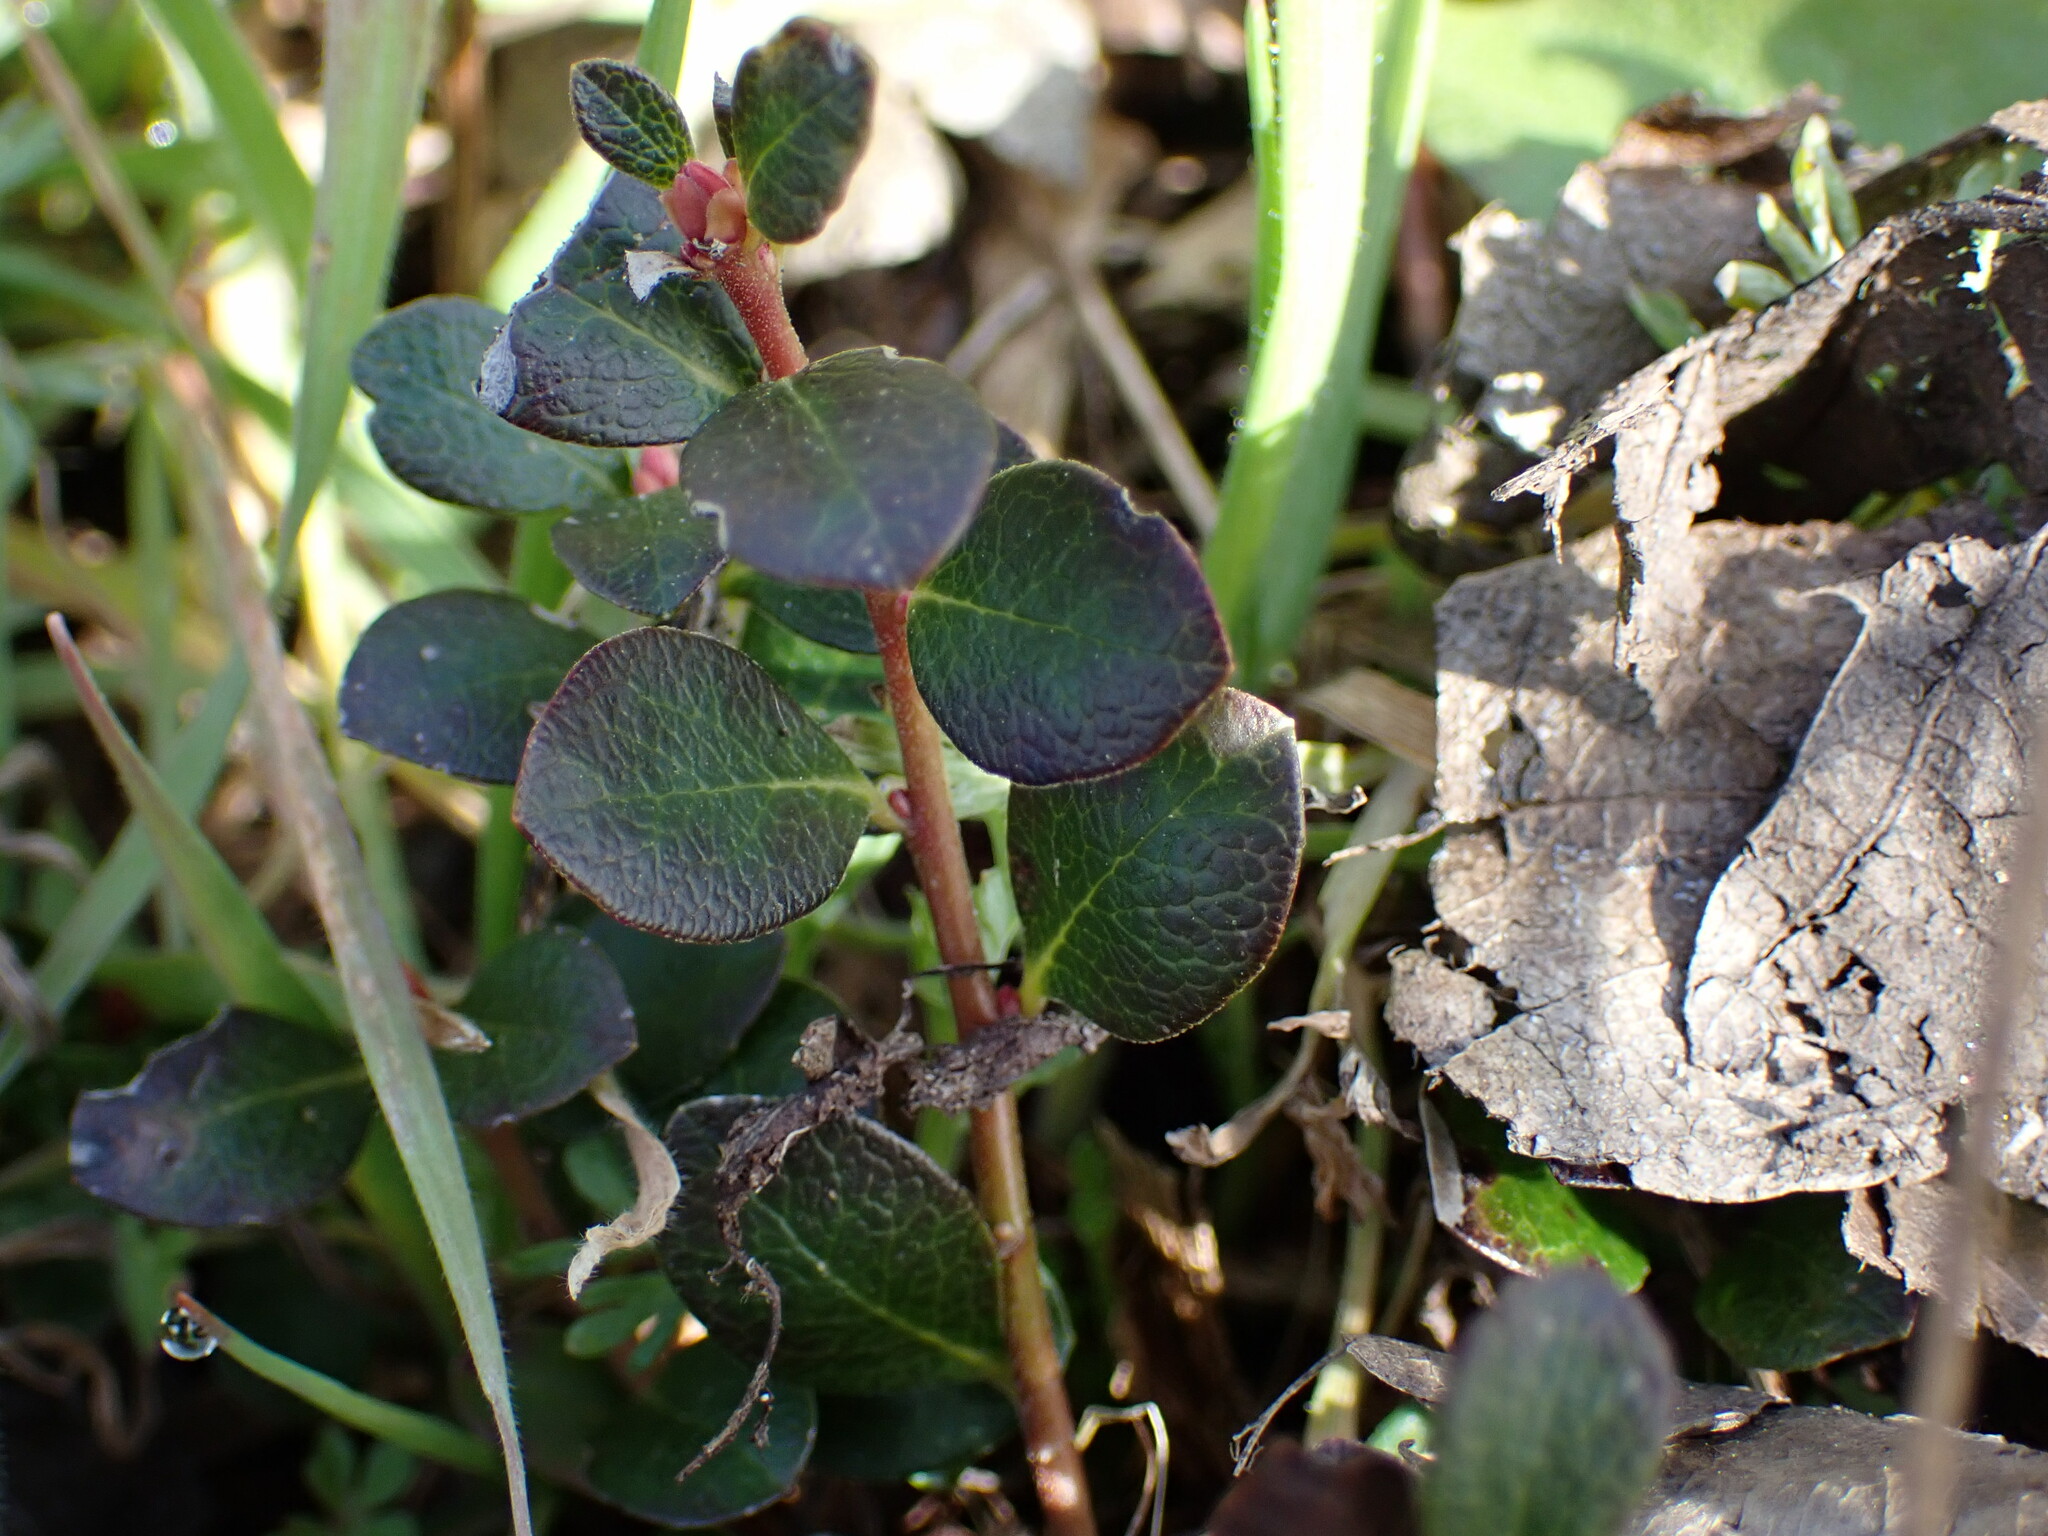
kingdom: Plantae
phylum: Tracheophyta
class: Magnoliopsida
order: Ericales
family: Ericaceae
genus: Arctostaphylos
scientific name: Arctostaphylos uva-ursi
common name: Bearberry
